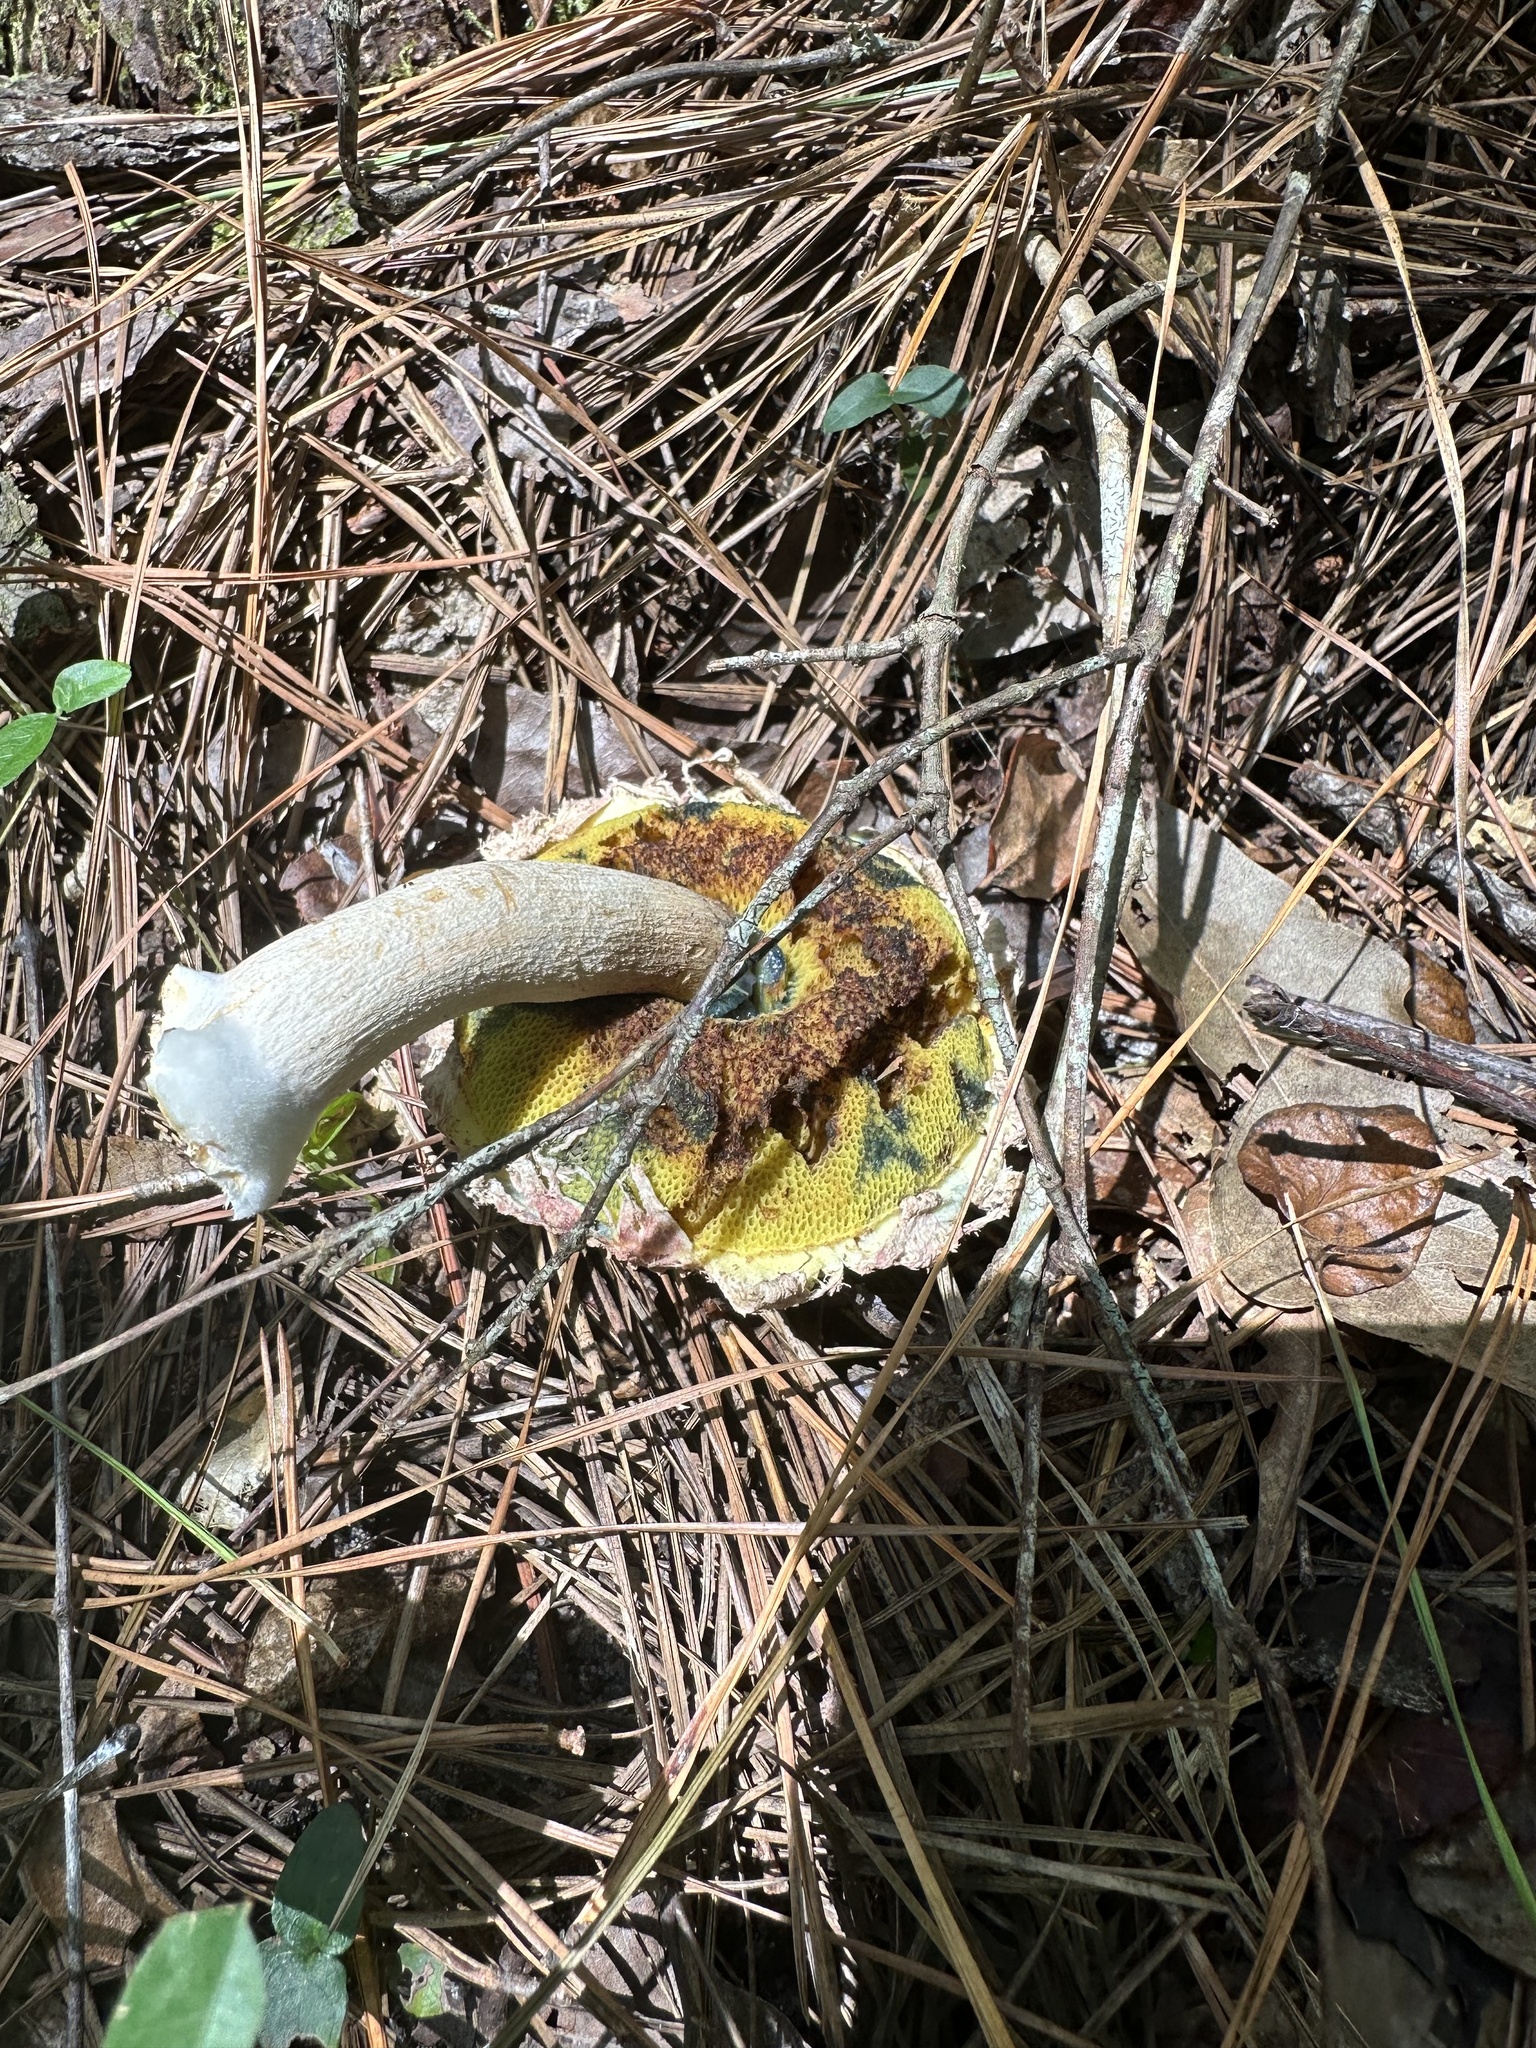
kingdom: Fungi
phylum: Basidiomycota
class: Agaricomycetes
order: Boletales
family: Boletaceae
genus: Boletellus
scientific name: Boletellus ananas
